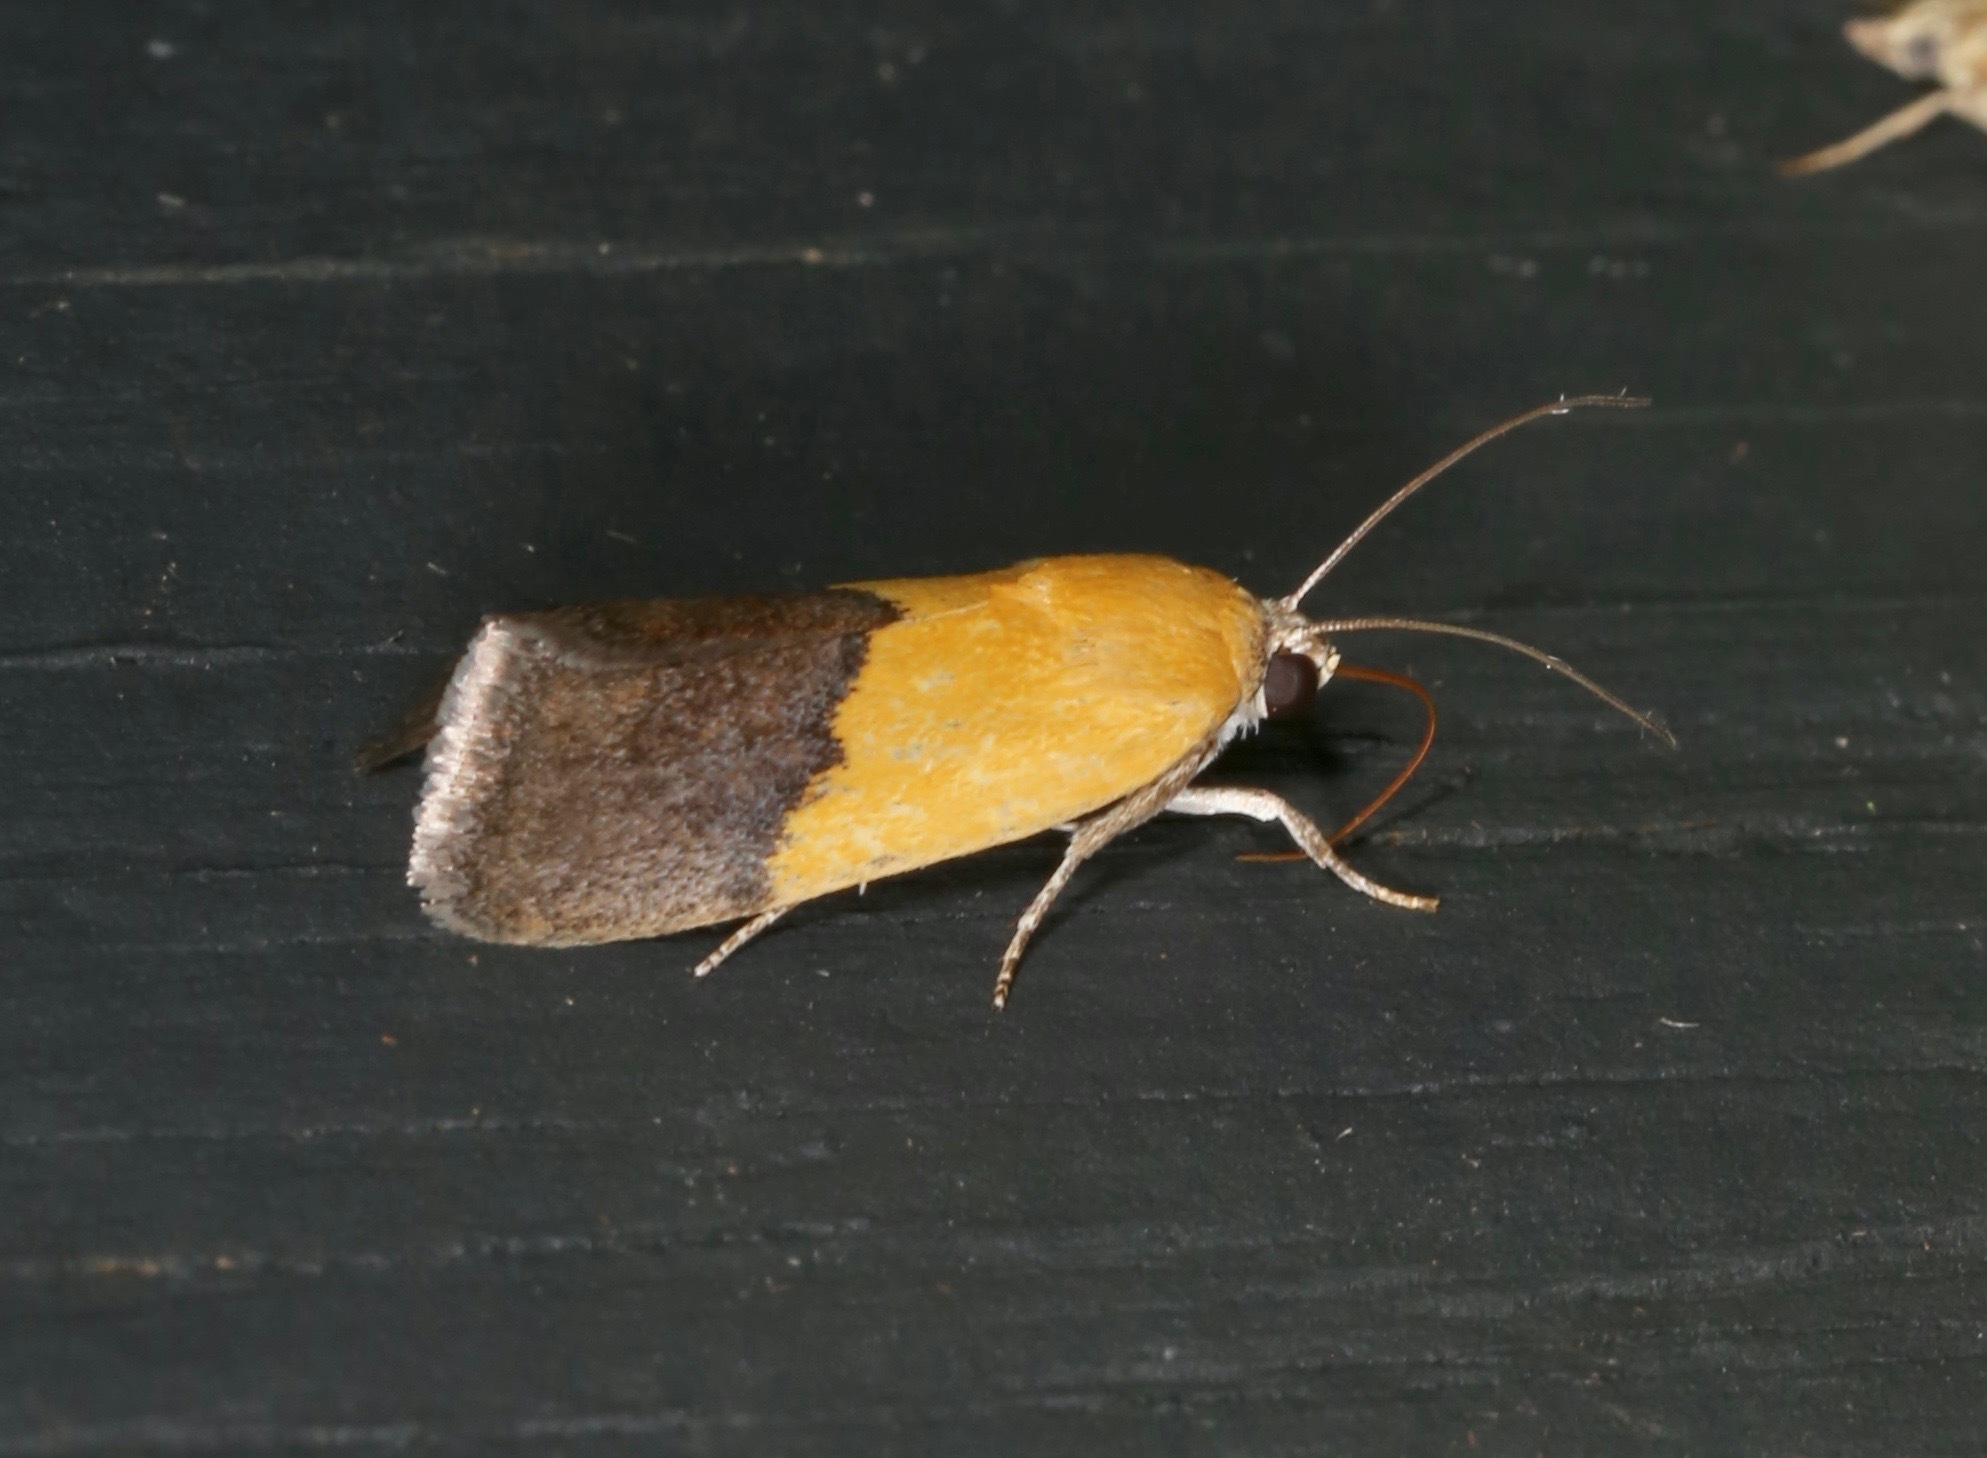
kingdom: Animalia
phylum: Arthropoda
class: Insecta
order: Lepidoptera
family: Noctuidae
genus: Acontia
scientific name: Acontia semiflava
